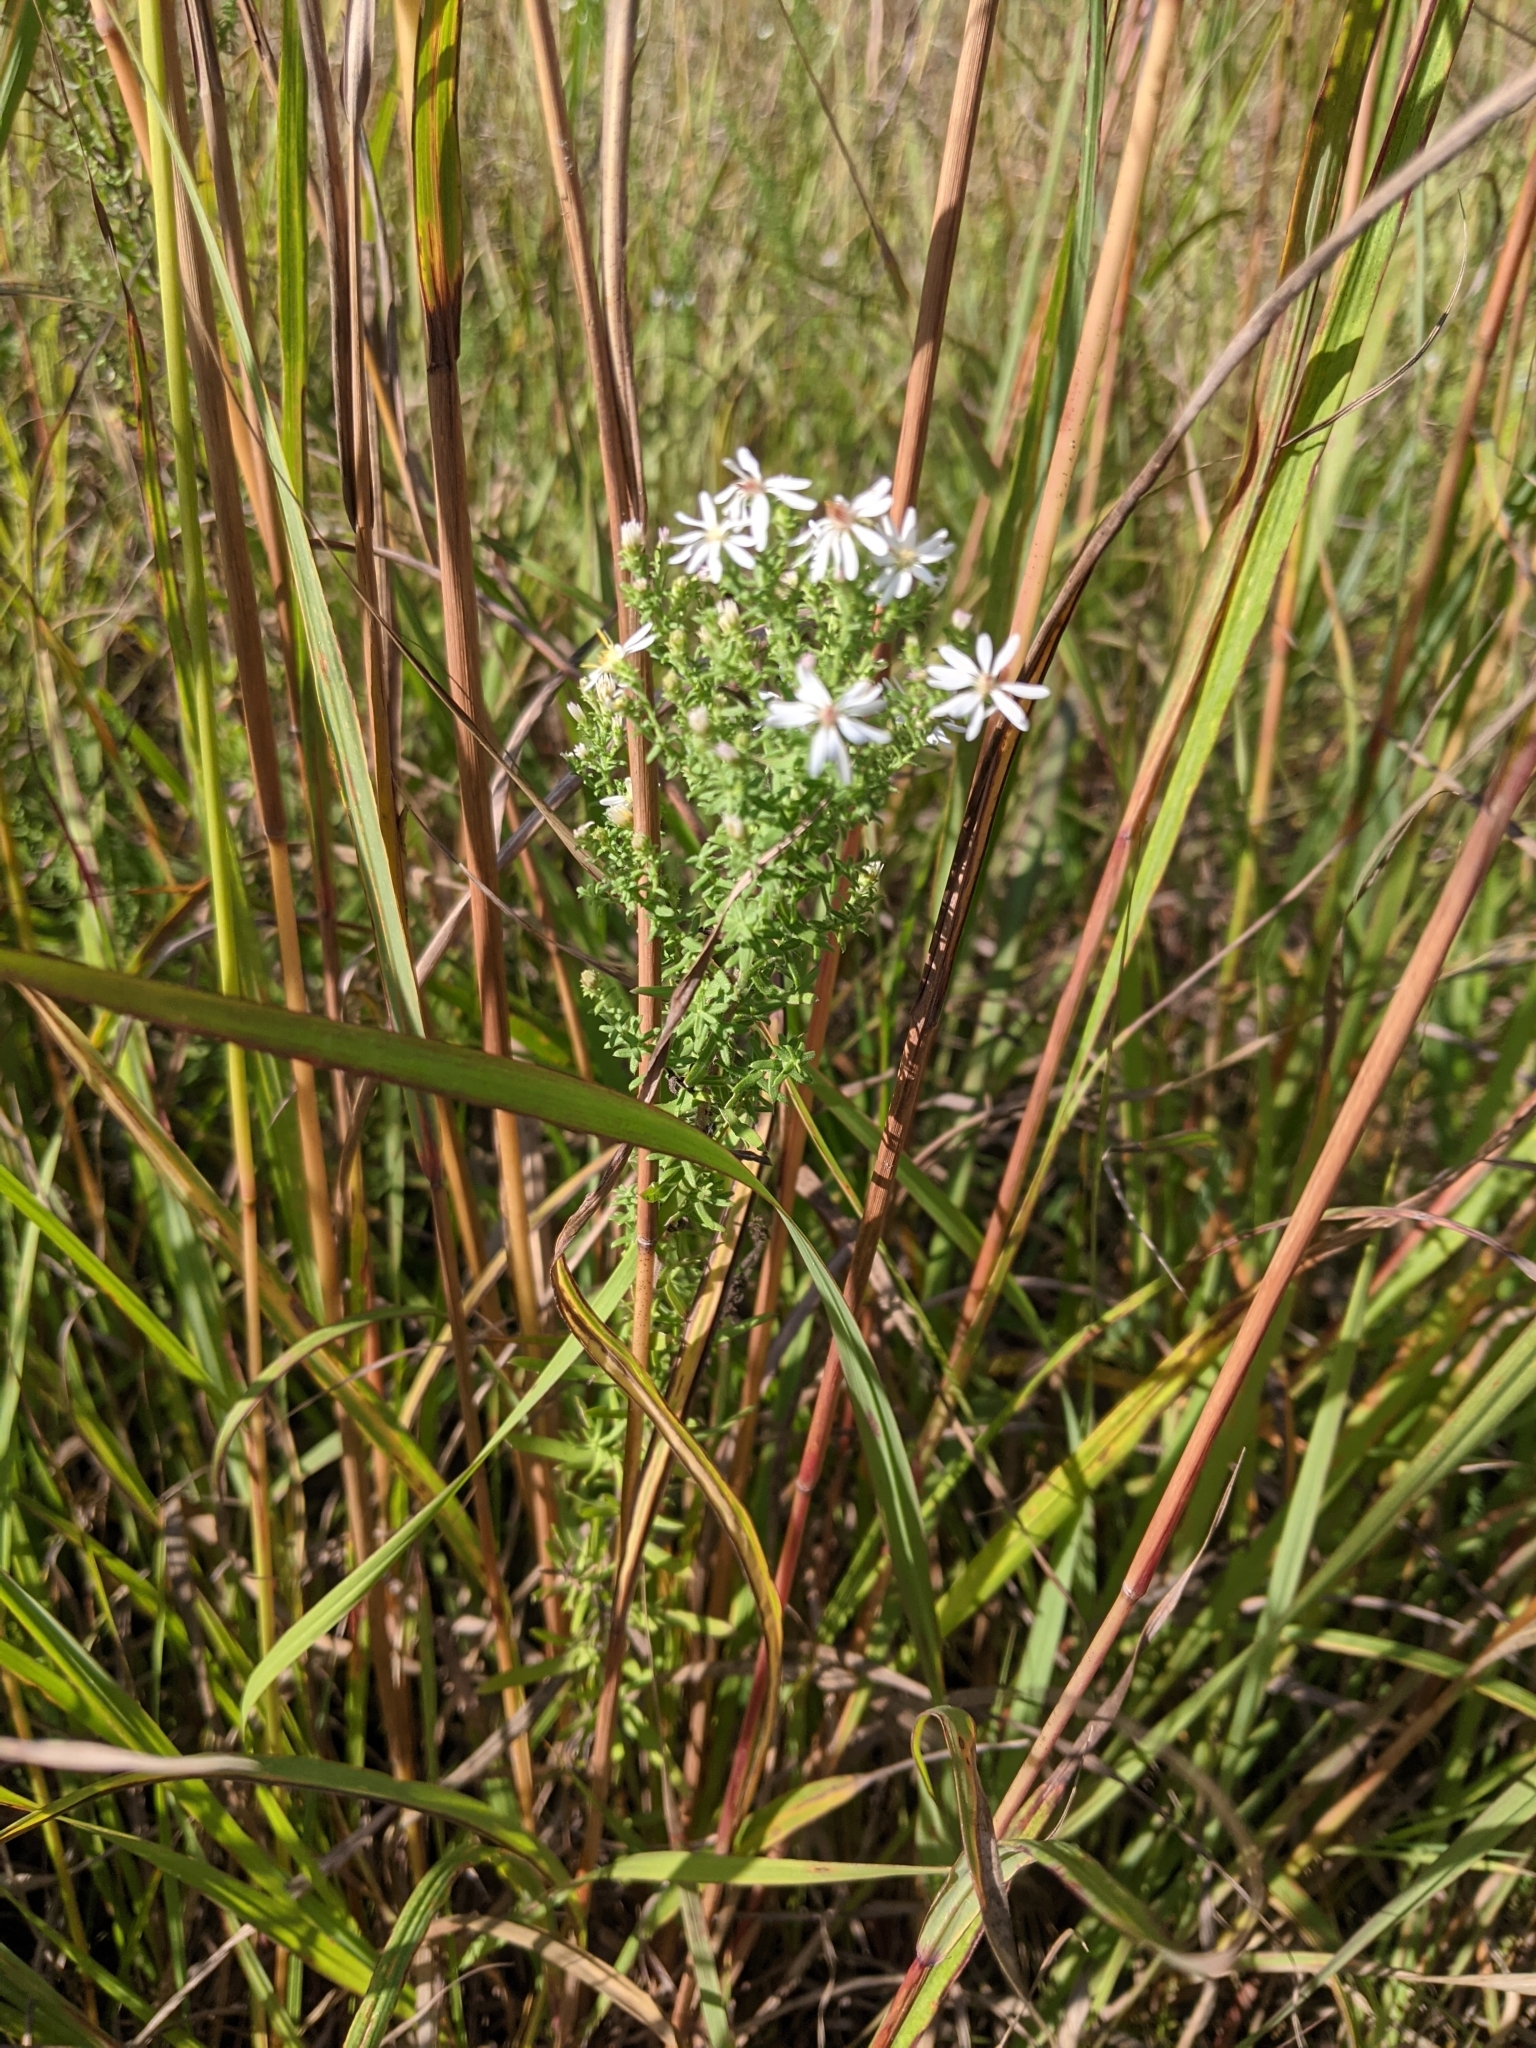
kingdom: Plantae
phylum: Tracheophyta
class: Magnoliopsida
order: Asterales
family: Asteraceae
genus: Symphyotrichum
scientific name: Symphyotrichum ericoides
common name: Heath aster
